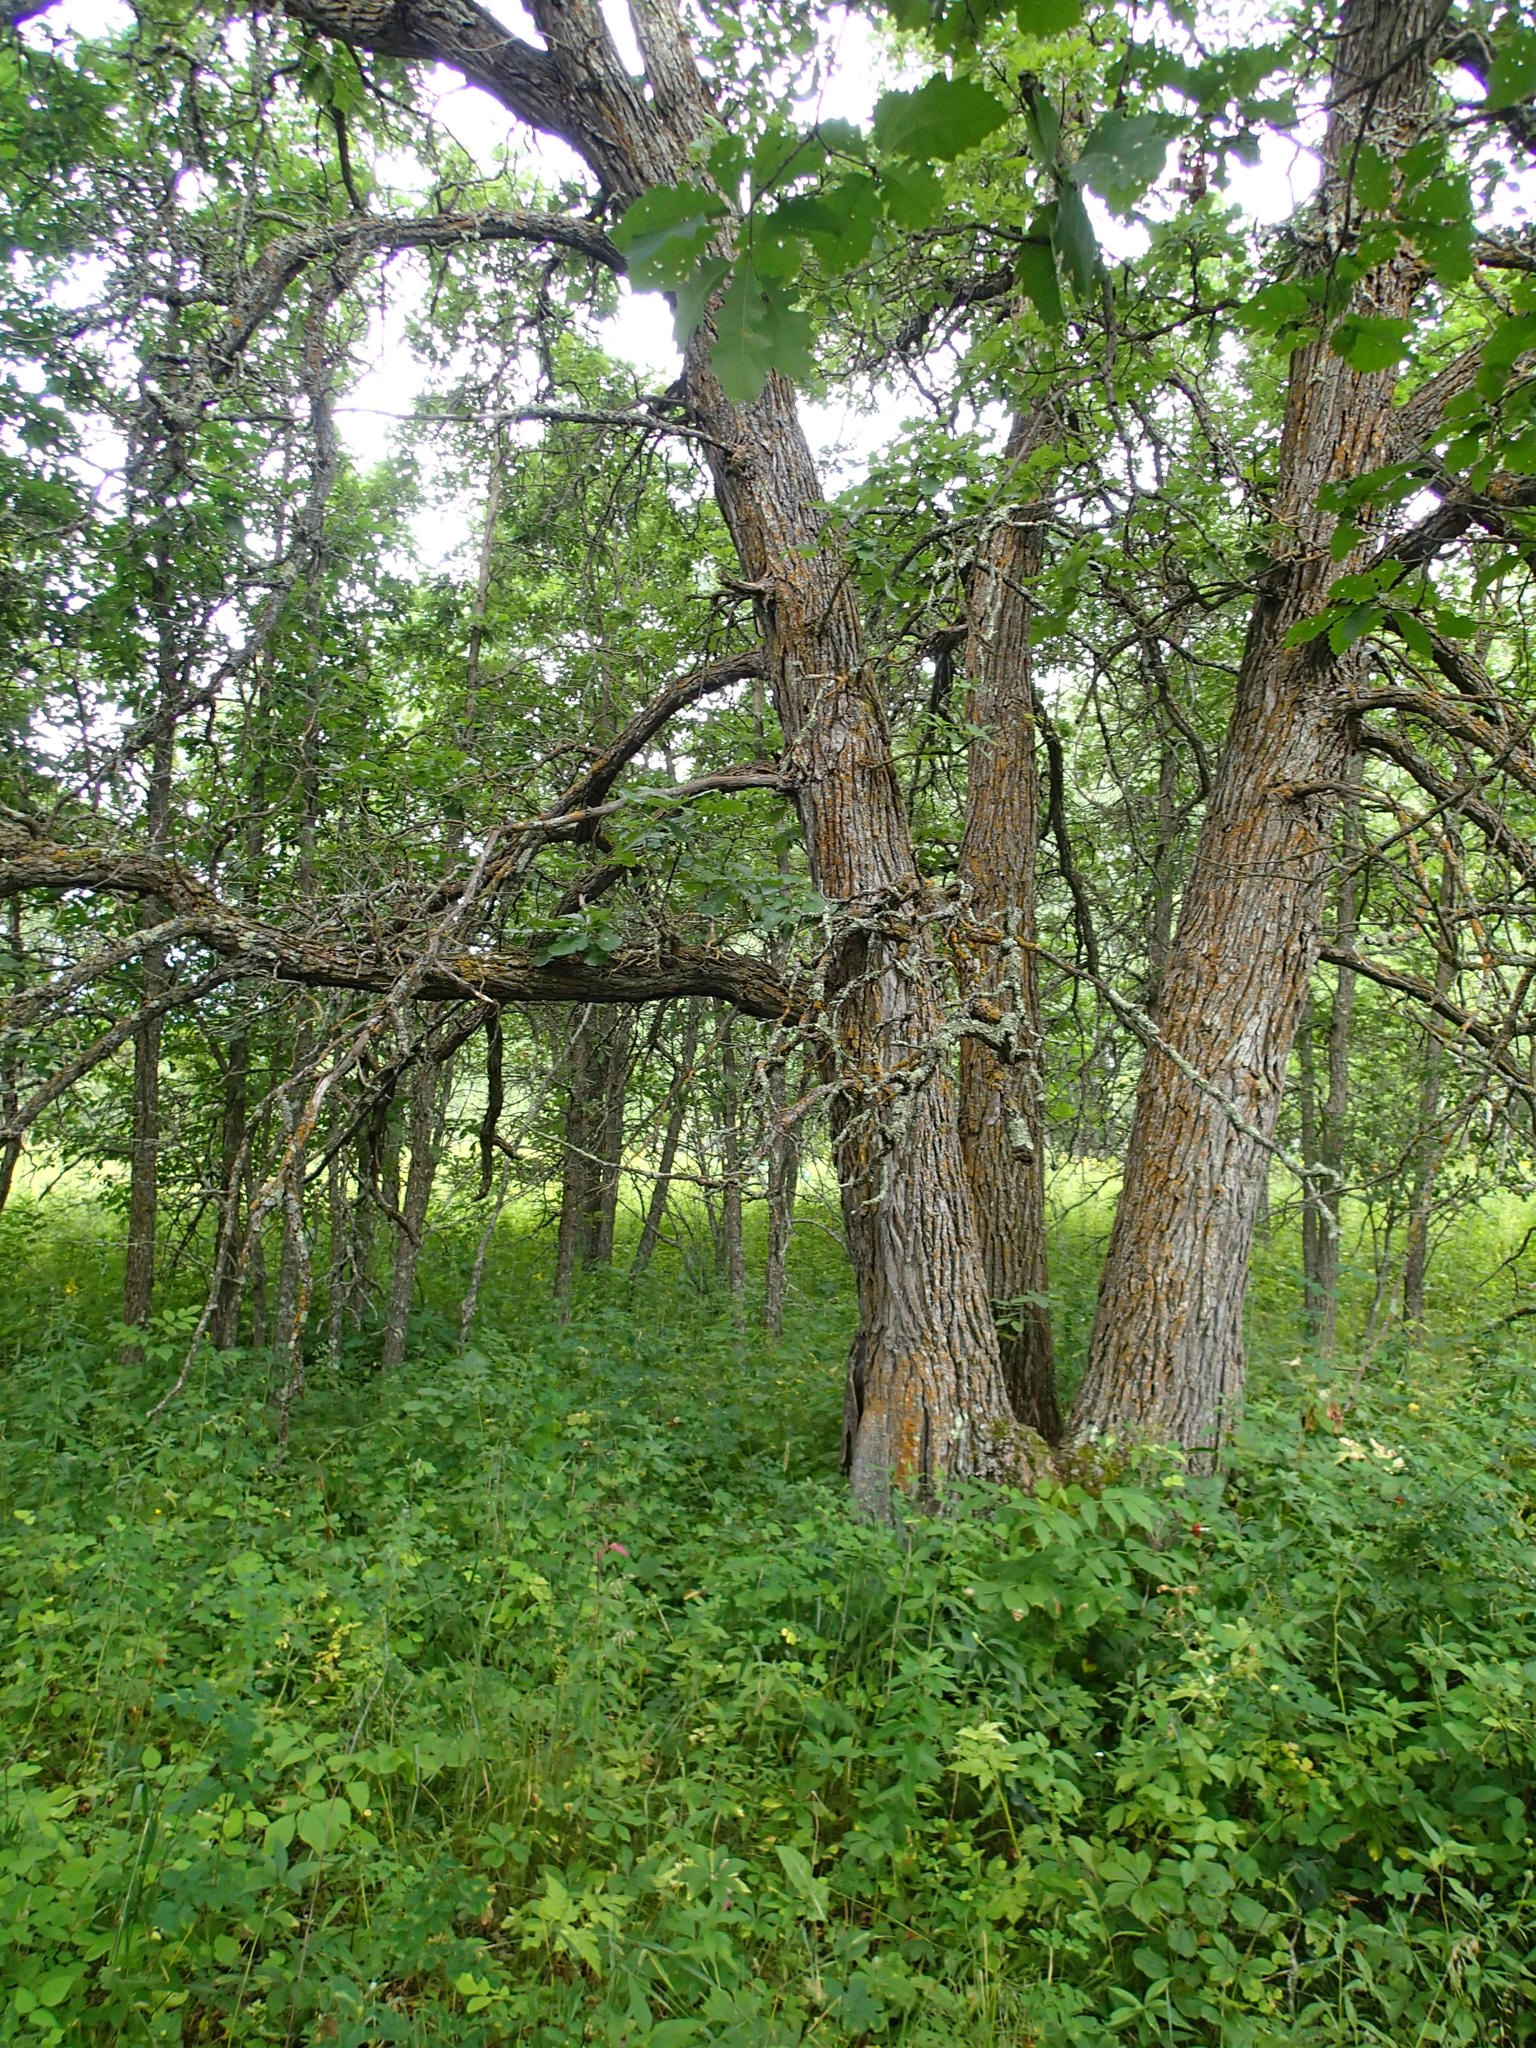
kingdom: Plantae
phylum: Tracheophyta
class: Magnoliopsida
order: Fagales
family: Fagaceae
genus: Quercus
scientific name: Quercus macrocarpa
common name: Bur oak
